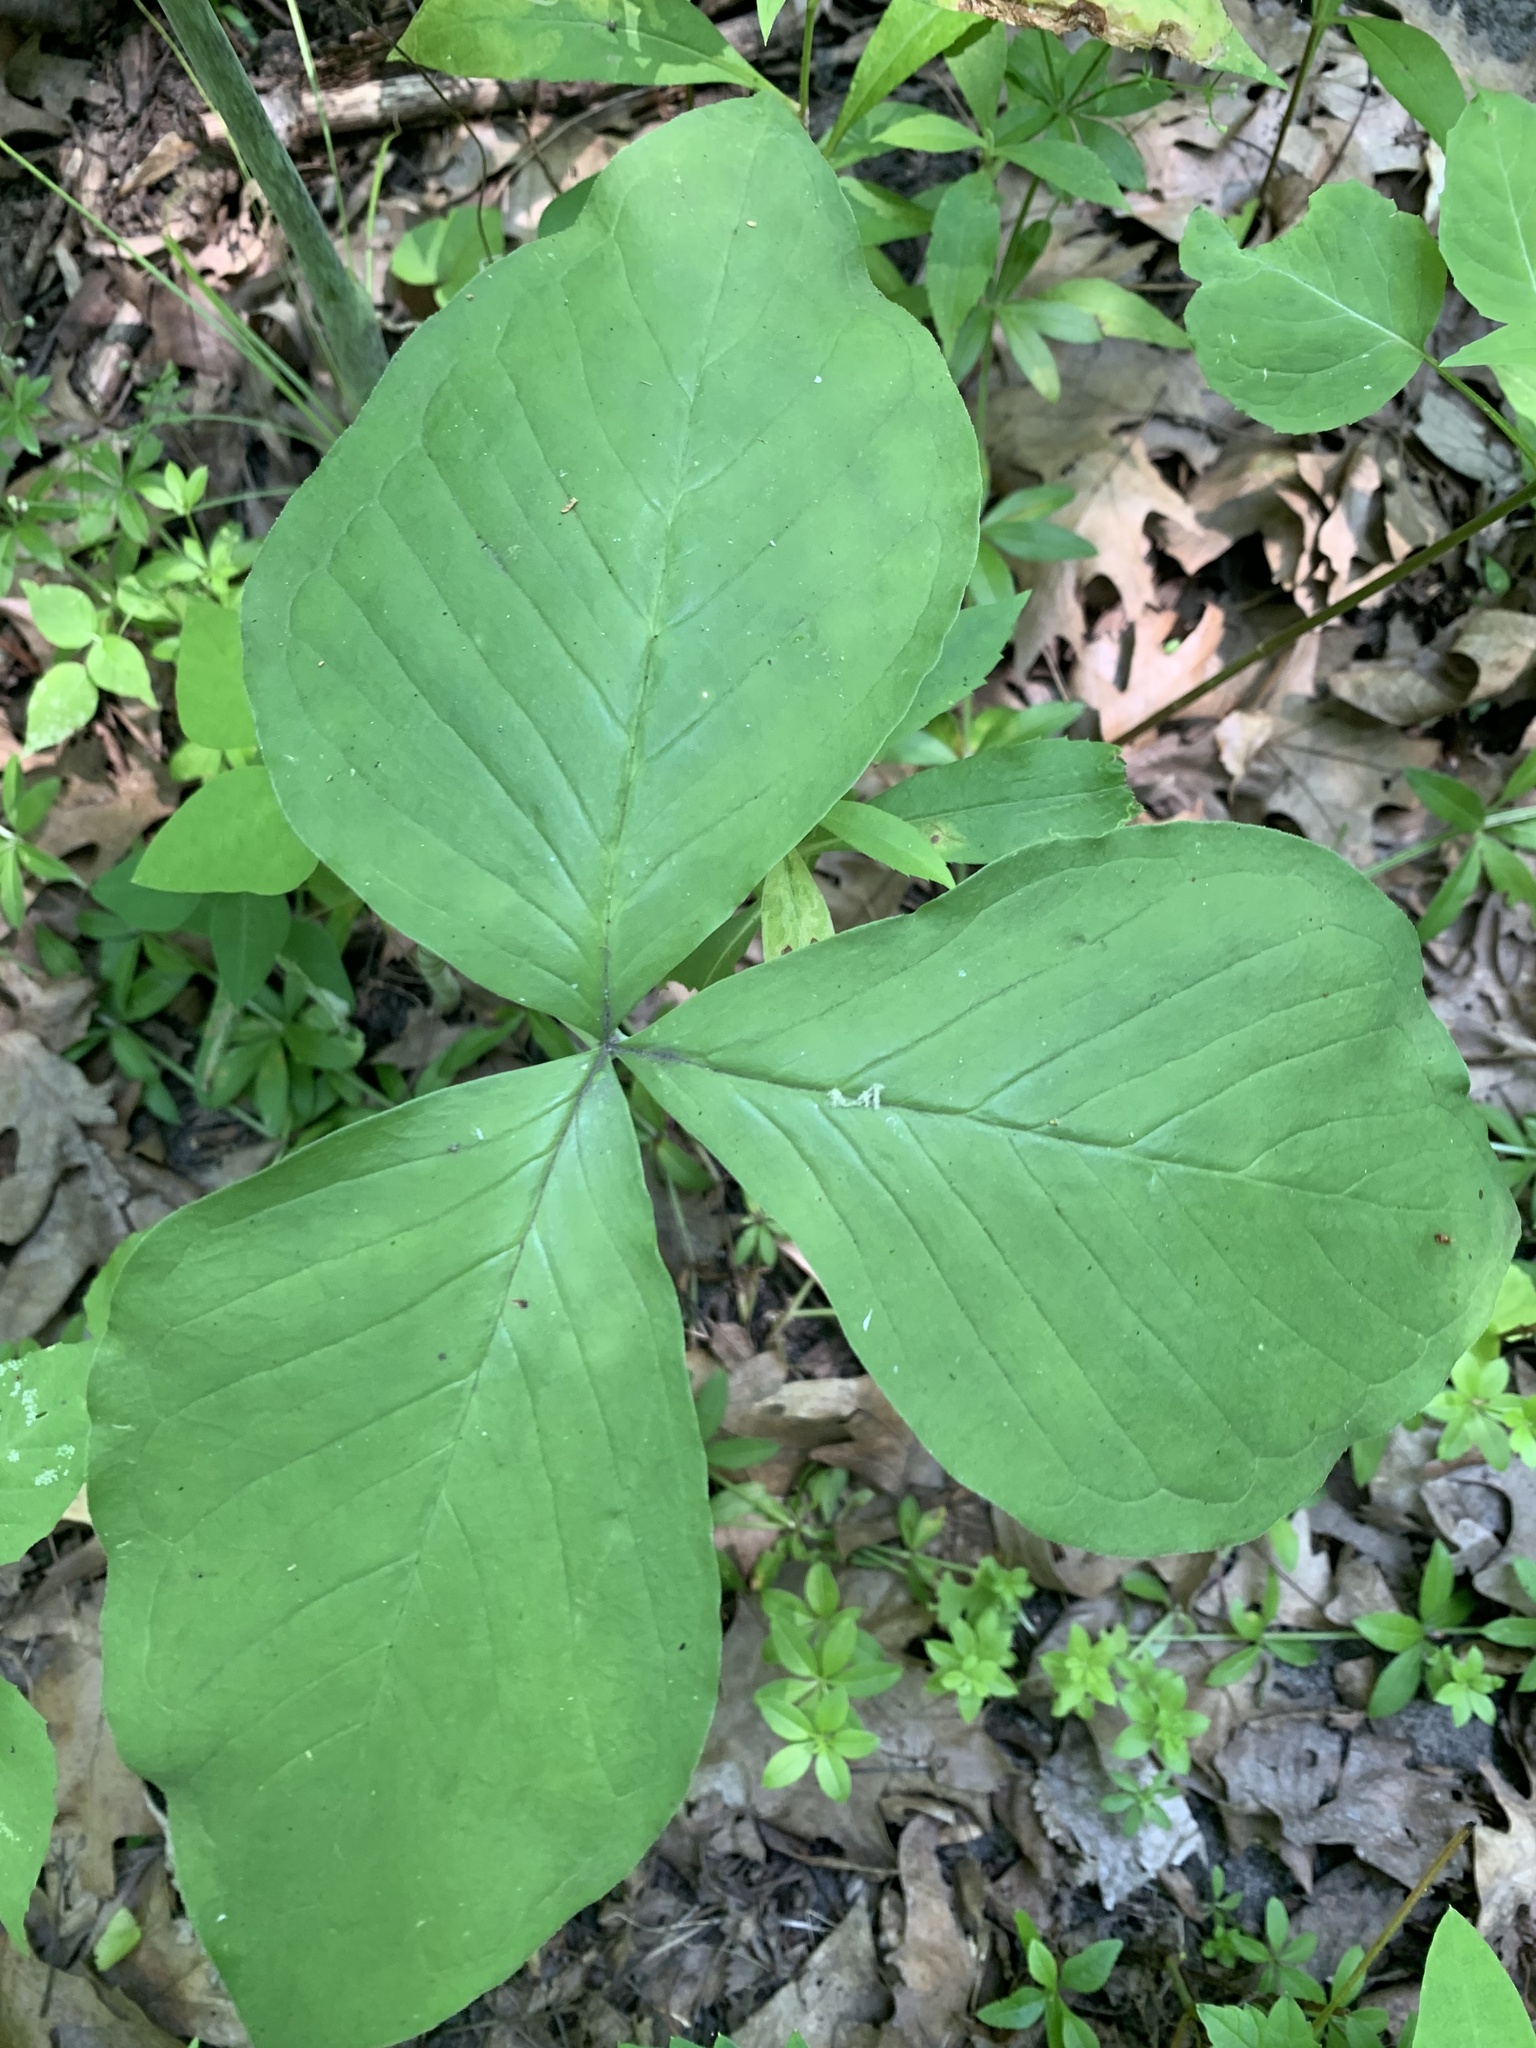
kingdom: Plantae
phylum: Tracheophyta
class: Liliopsida
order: Alismatales
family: Araceae
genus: Arisaema
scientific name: Arisaema triphyllum
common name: Jack-in-the-pulpit
